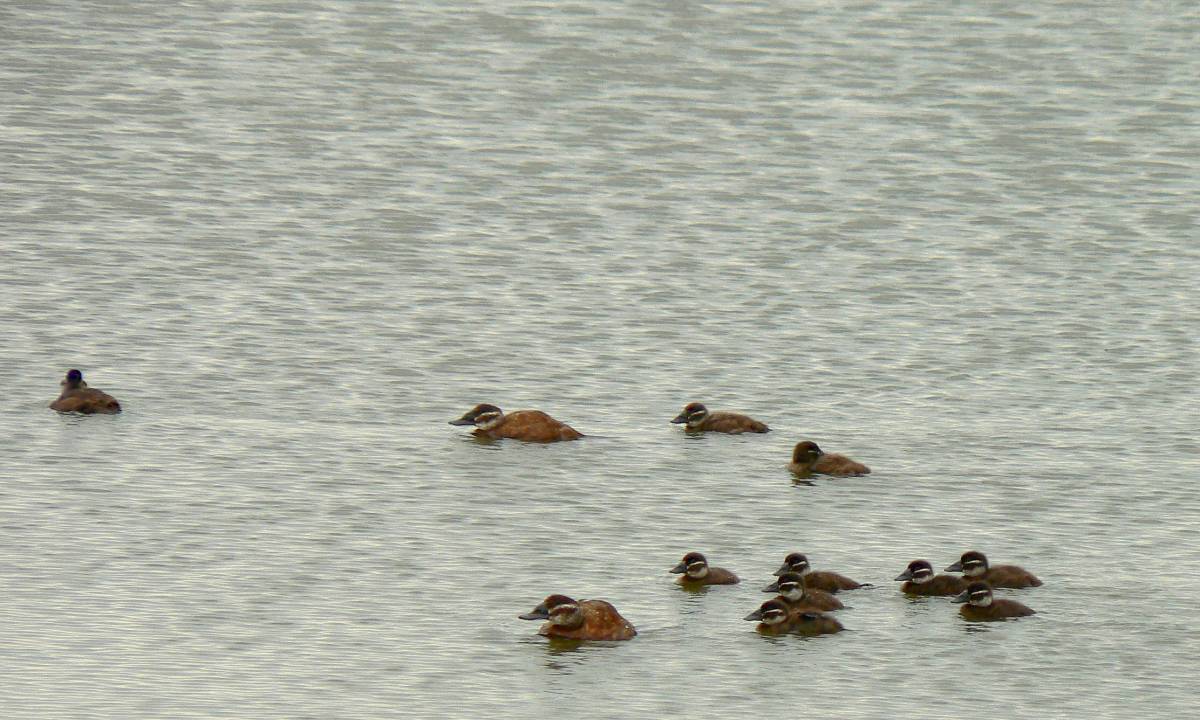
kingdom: Animalia
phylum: Chordata
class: Aves
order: Anseriformes
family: Anatidae
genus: Oxyura
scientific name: Oxyura leucocephala
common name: White-headed duck
